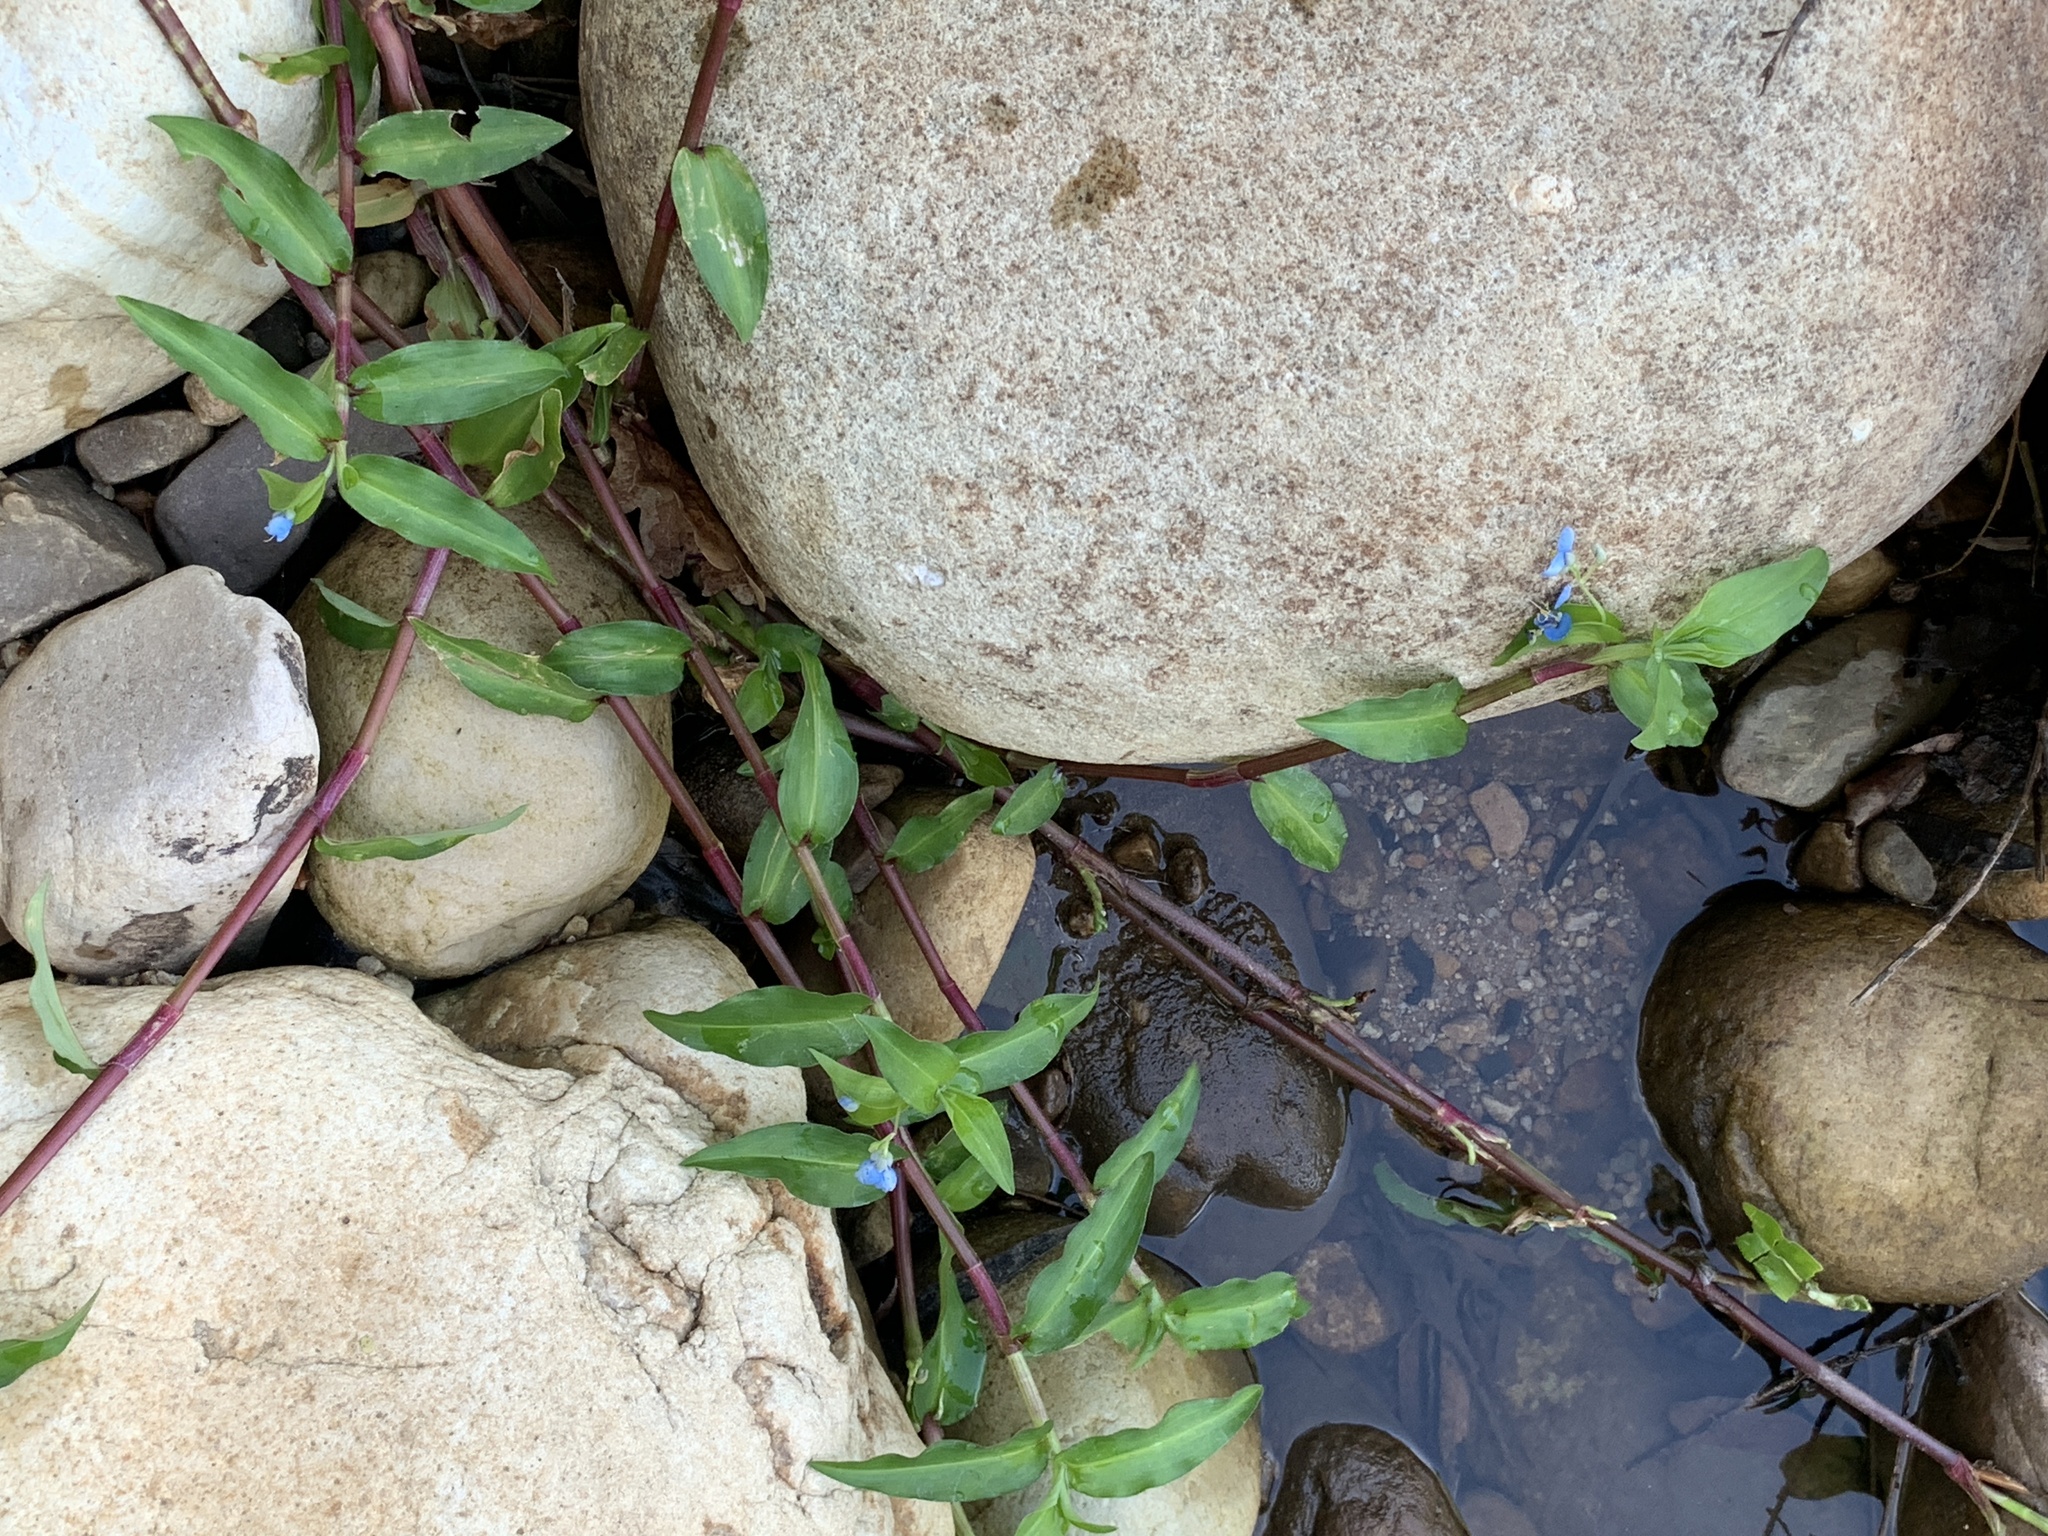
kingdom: Plantae
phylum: Tracheophyta
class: Liliopsida
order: Commelinales
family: Commelinaceae
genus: Commelina
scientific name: Commelina diffusa
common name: Climbing dayflower
